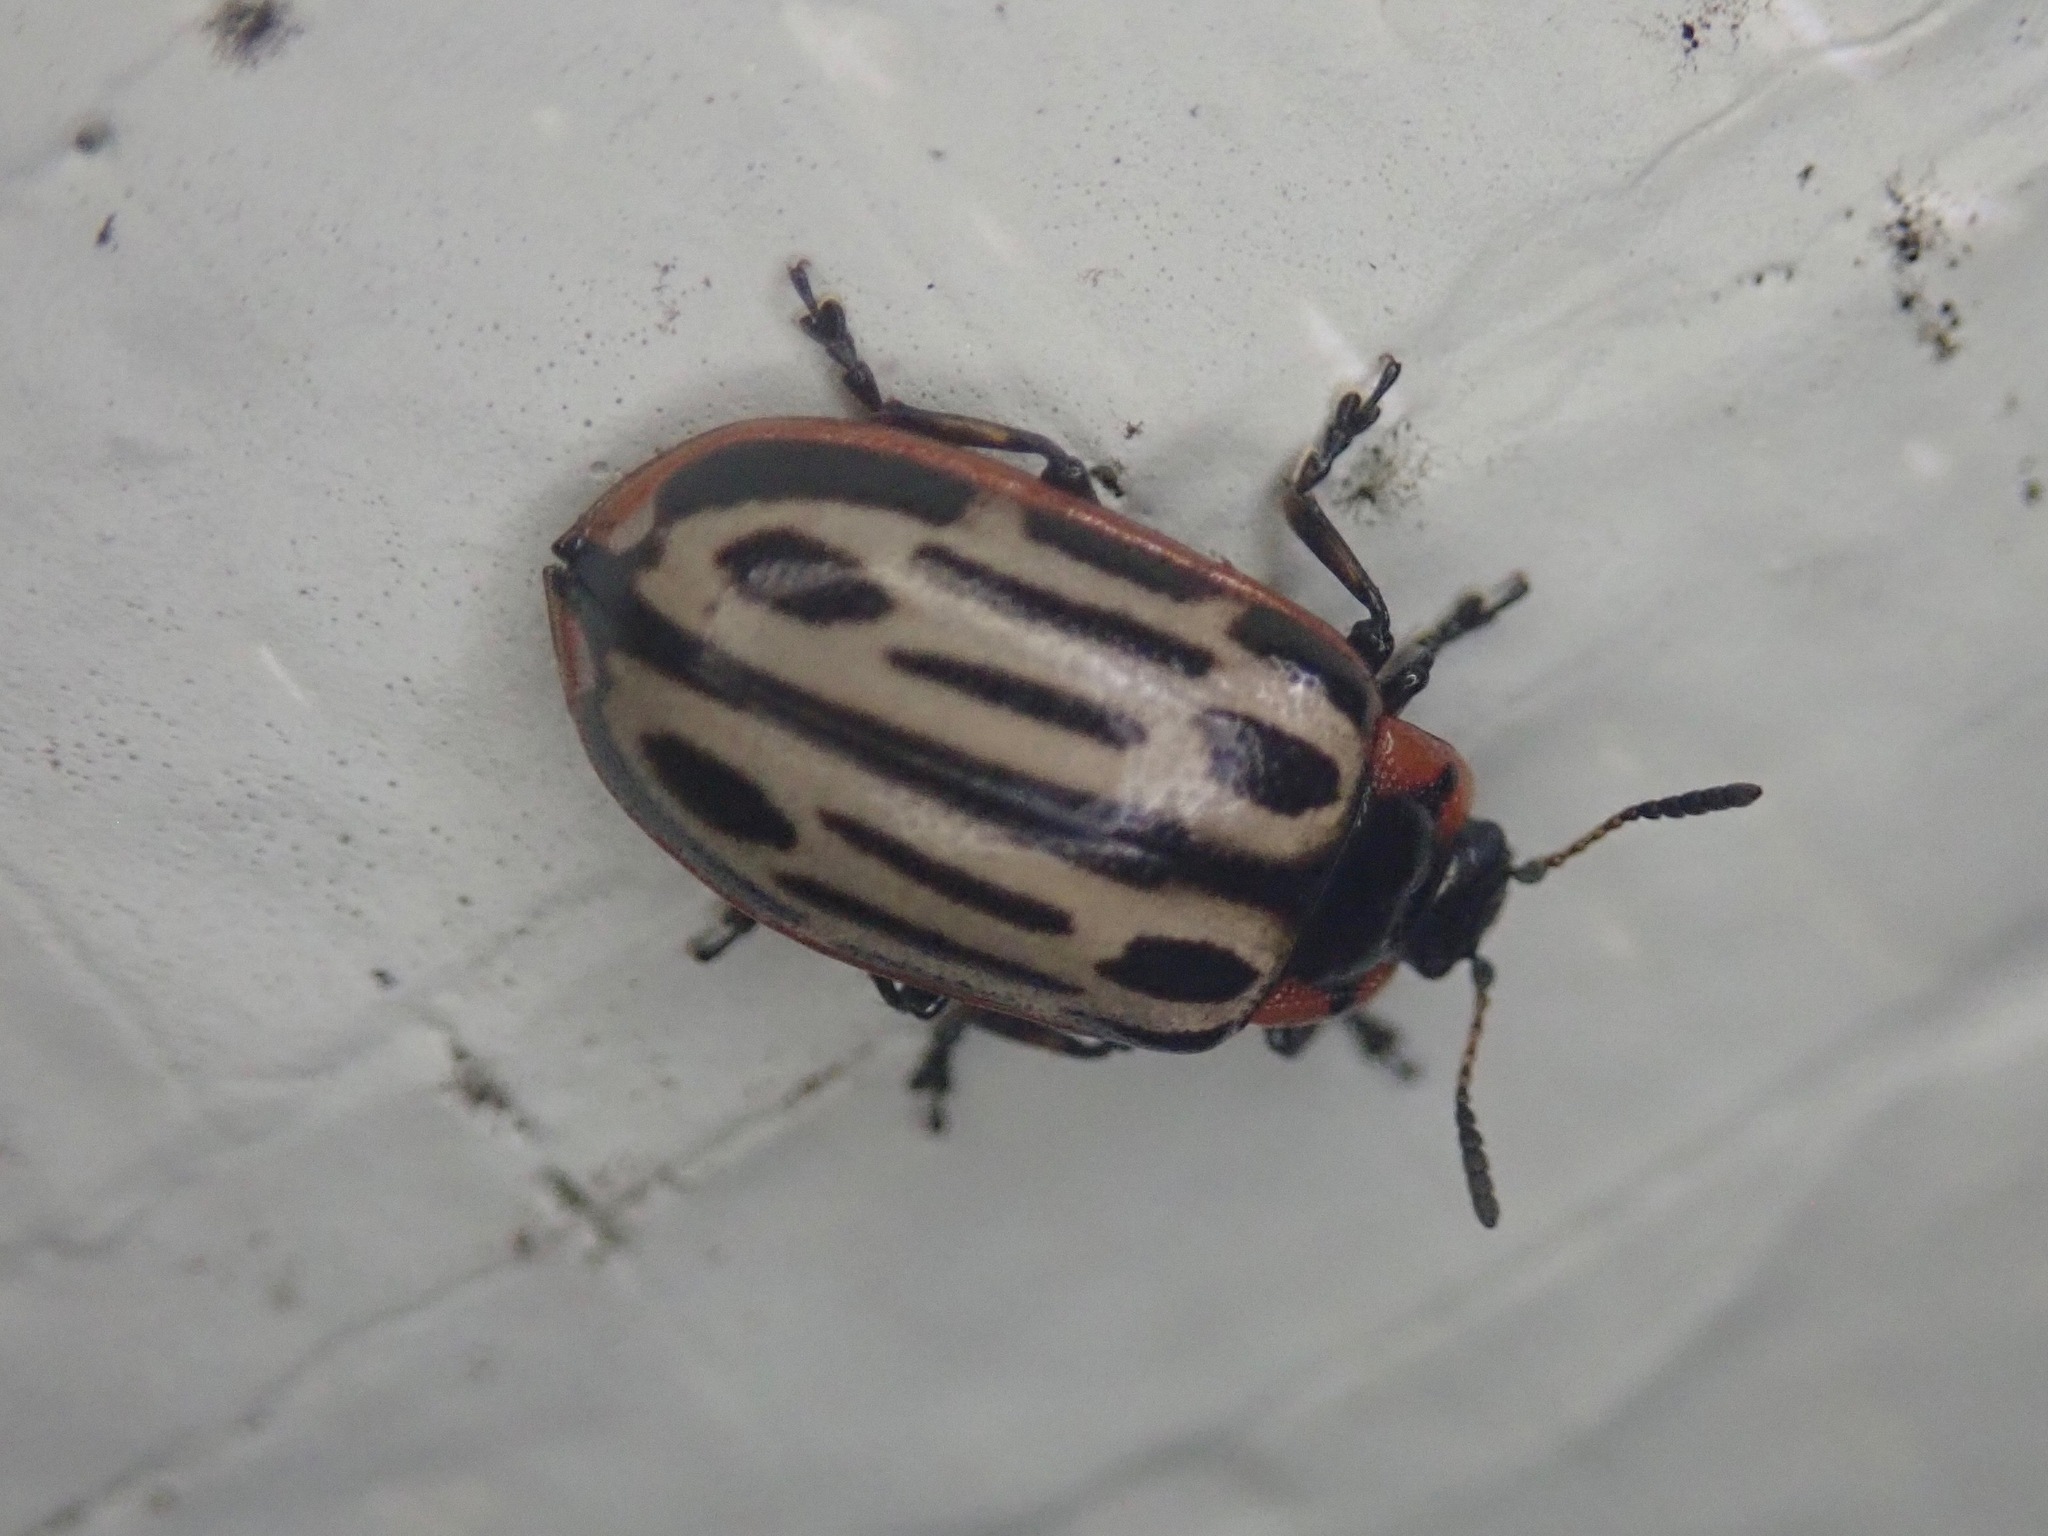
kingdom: Animalia
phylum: Arthropoda
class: Insecta
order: Coleoptera
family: Chrysomelidae
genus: Aethiopocassis
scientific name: Aethiopocassis scripta
